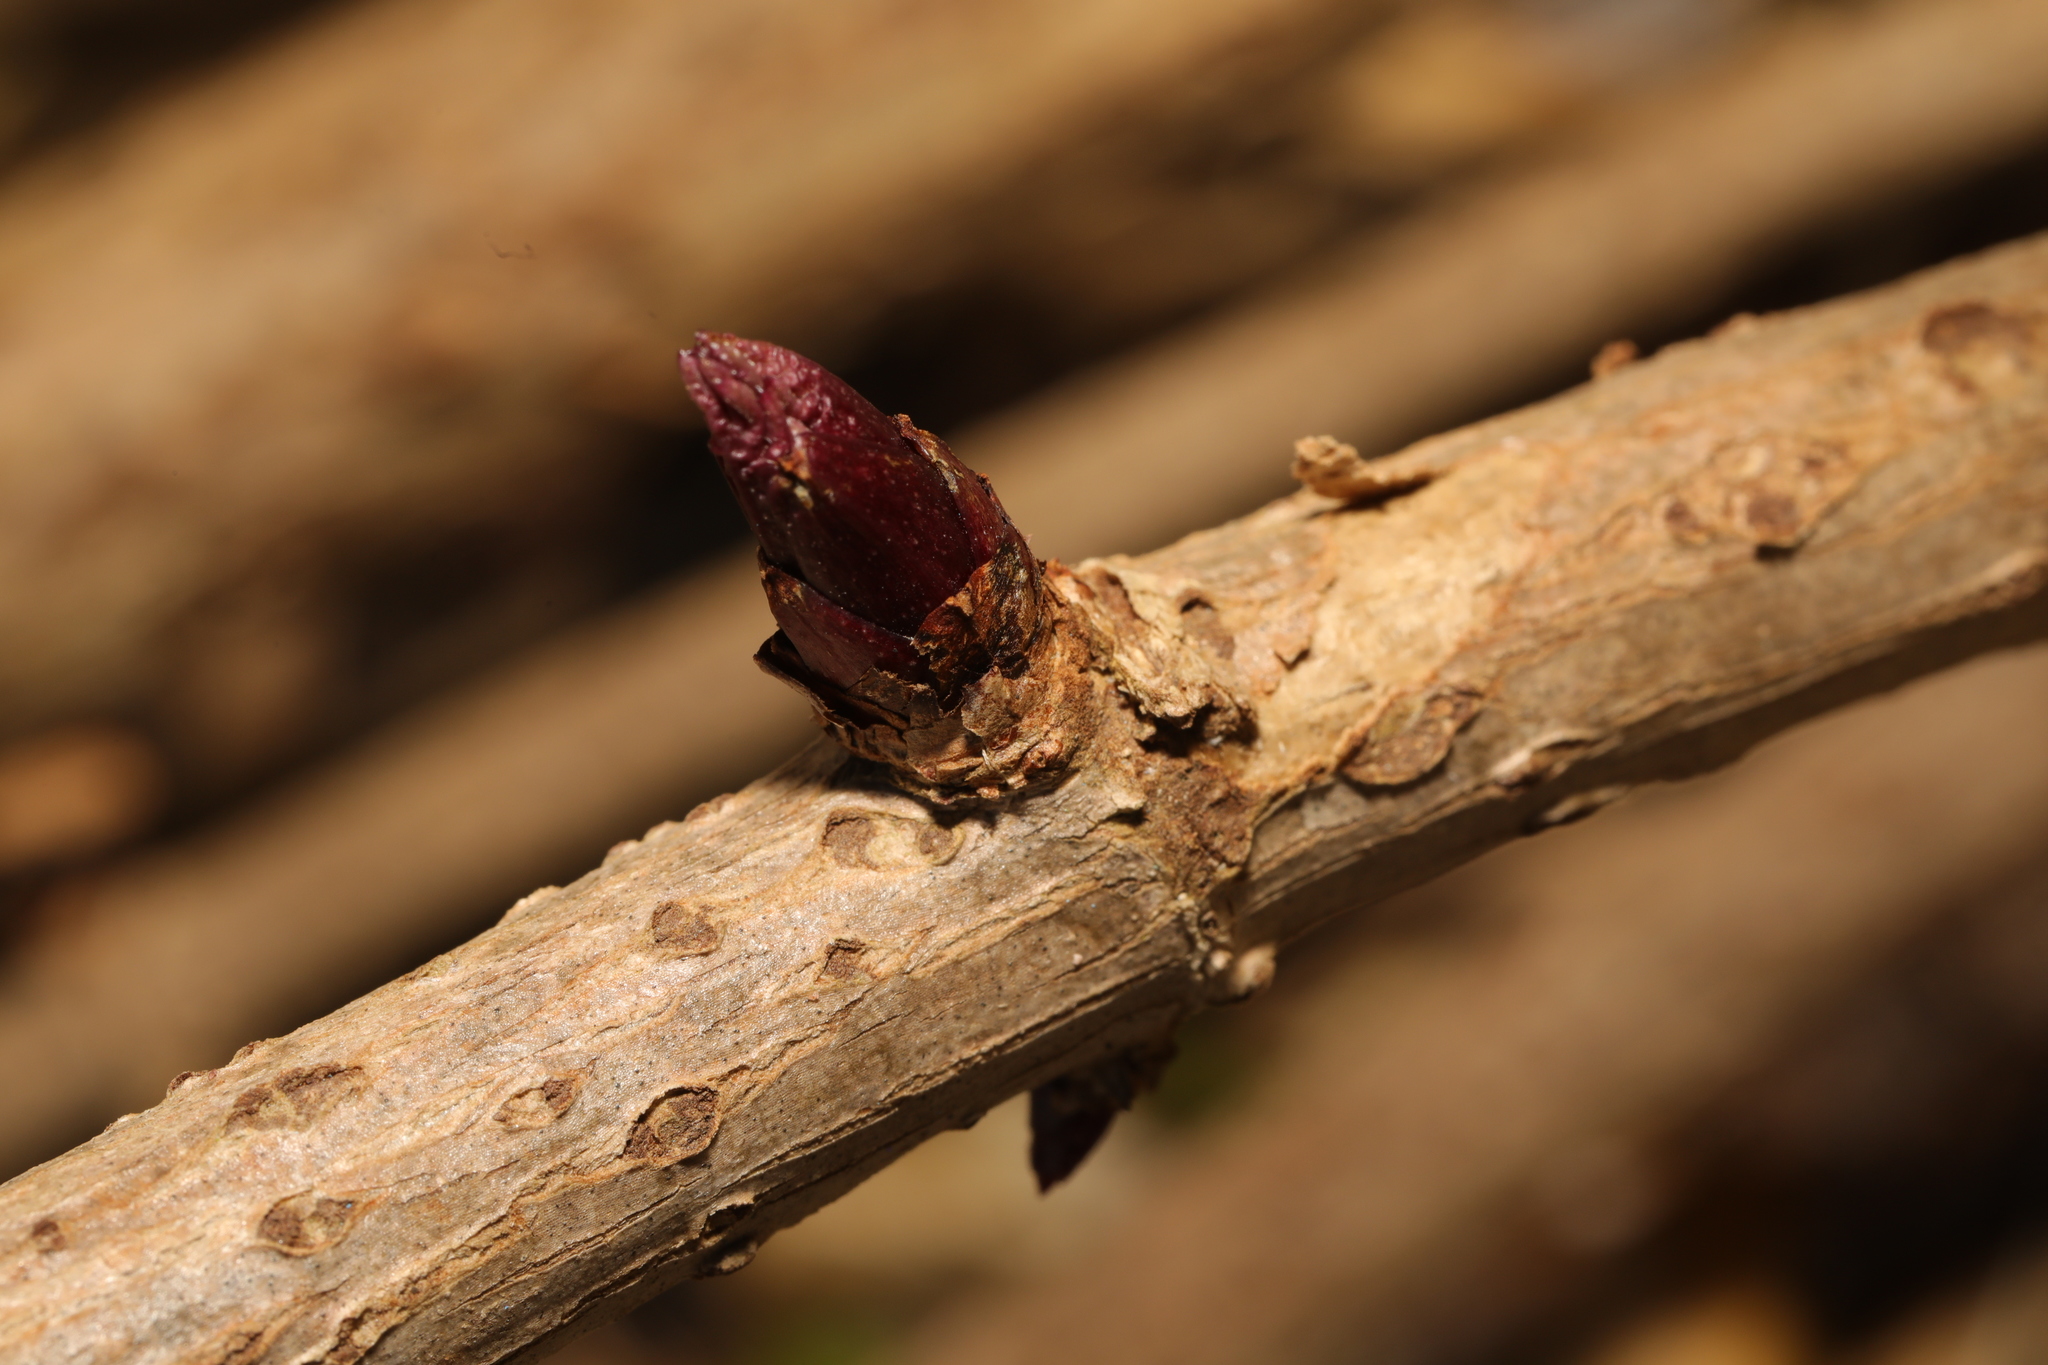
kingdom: Plantae
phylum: Tracheophyta
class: Magnoliopsida
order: Dipsacales
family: Viburnaceae
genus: Sambucus
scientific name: Sambucus nigra
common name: Elder
